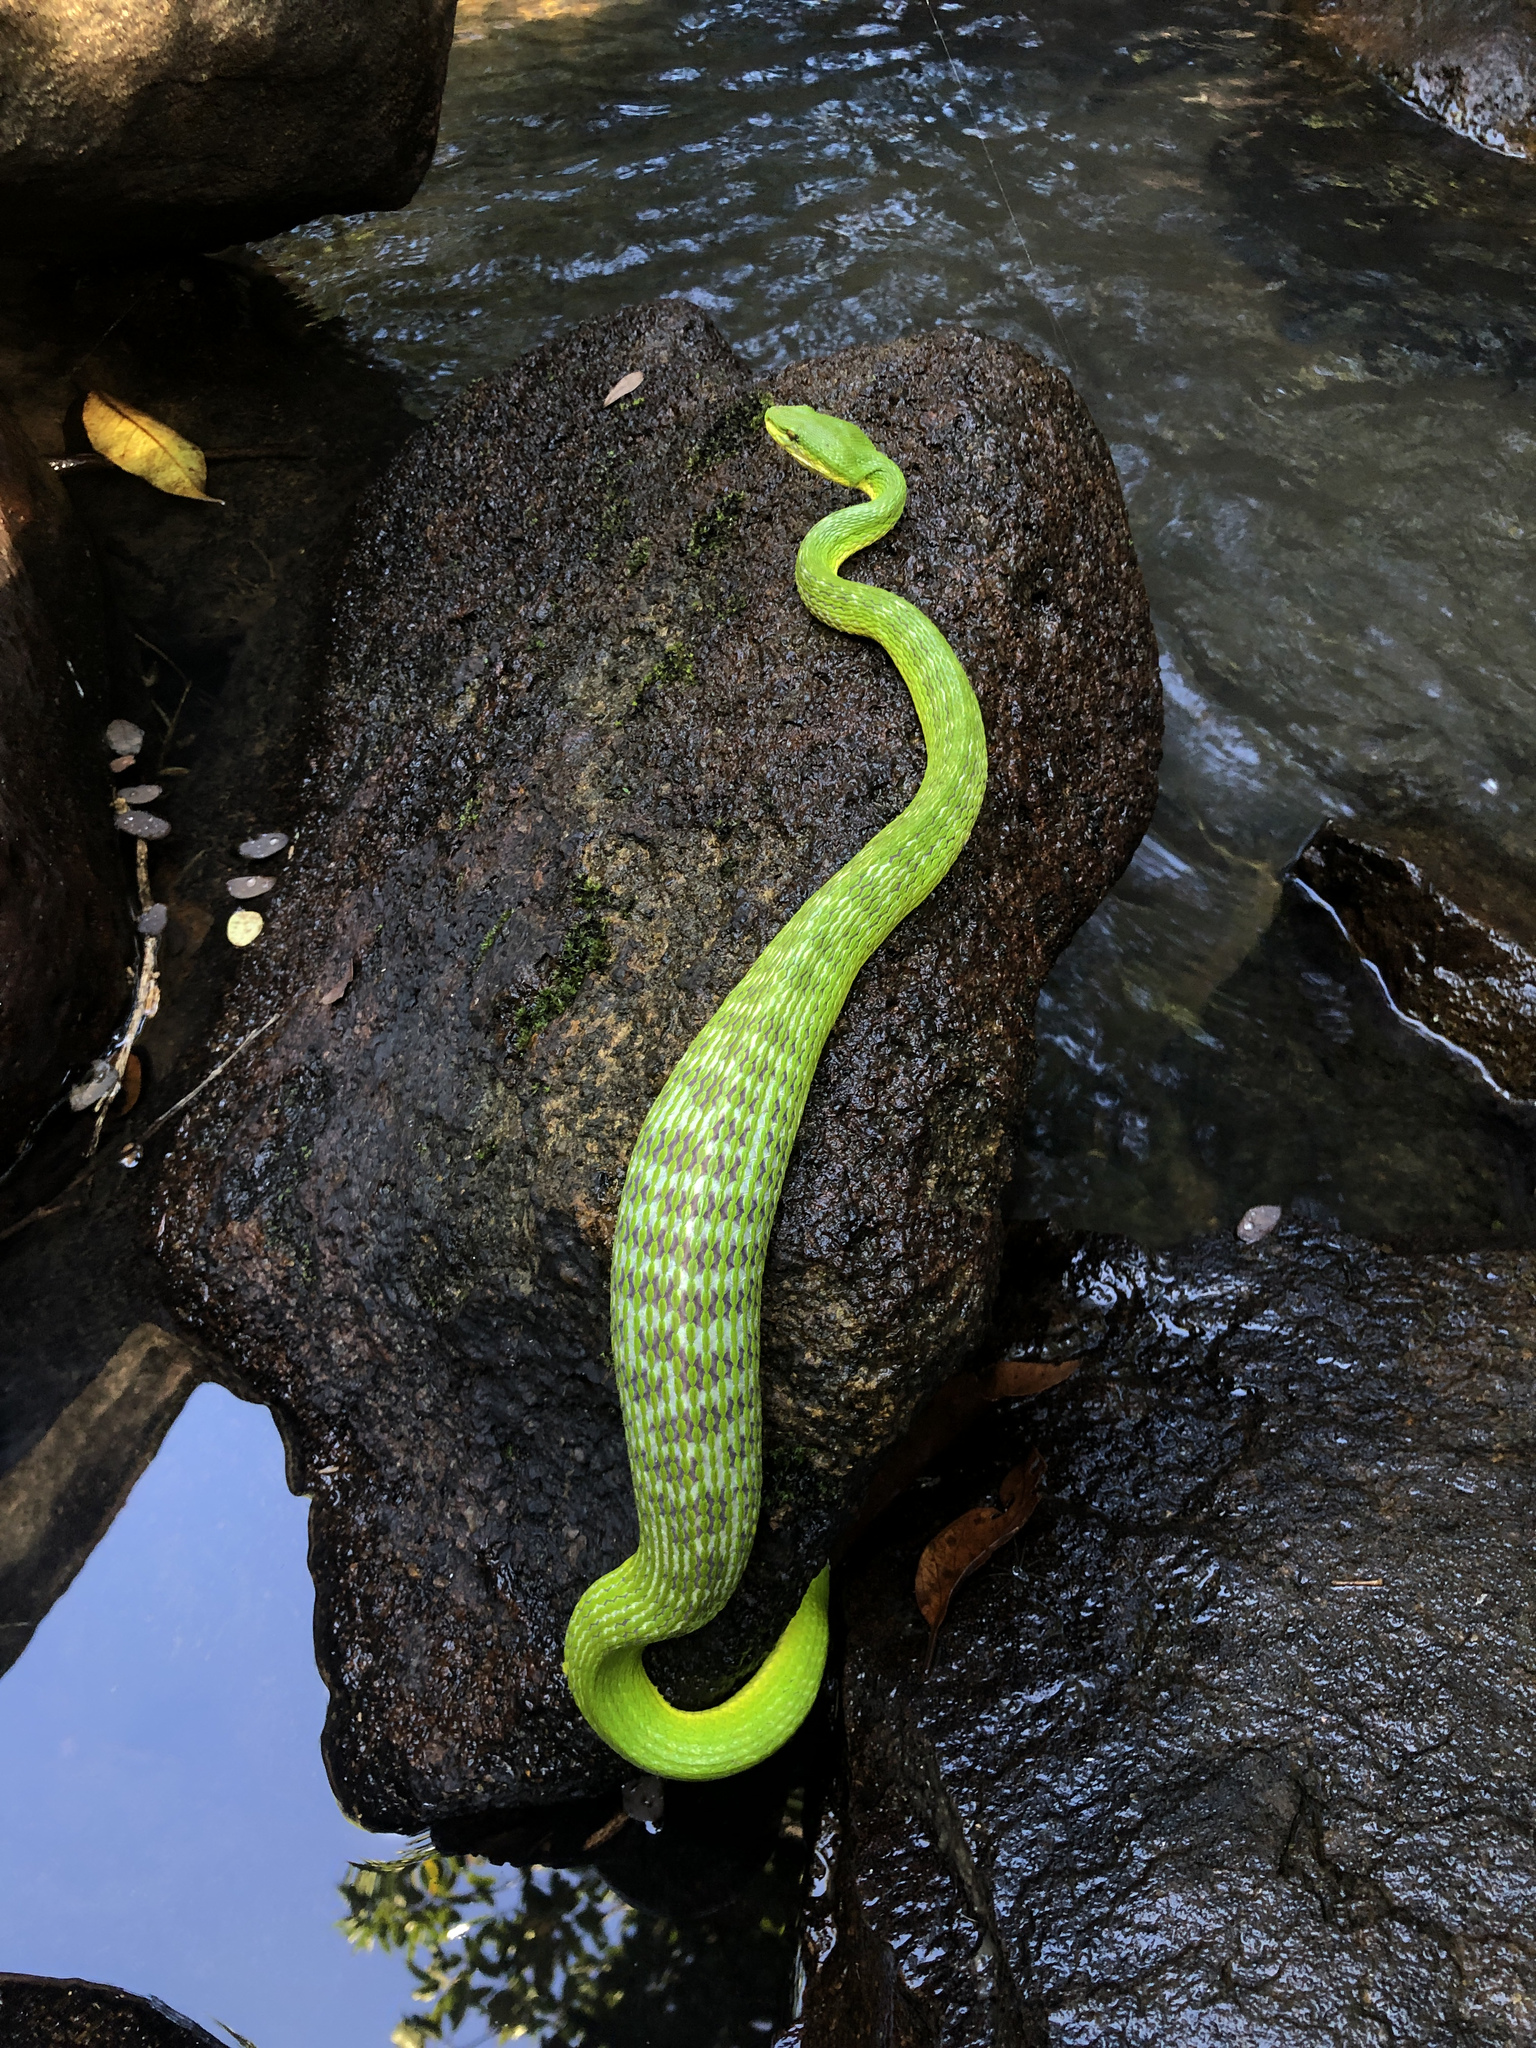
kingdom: Animalia
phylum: Chordata
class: Squamata
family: Viperidae
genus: Trimeresurus
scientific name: Trimeresurus albolabris
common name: White-lipped pitviper
